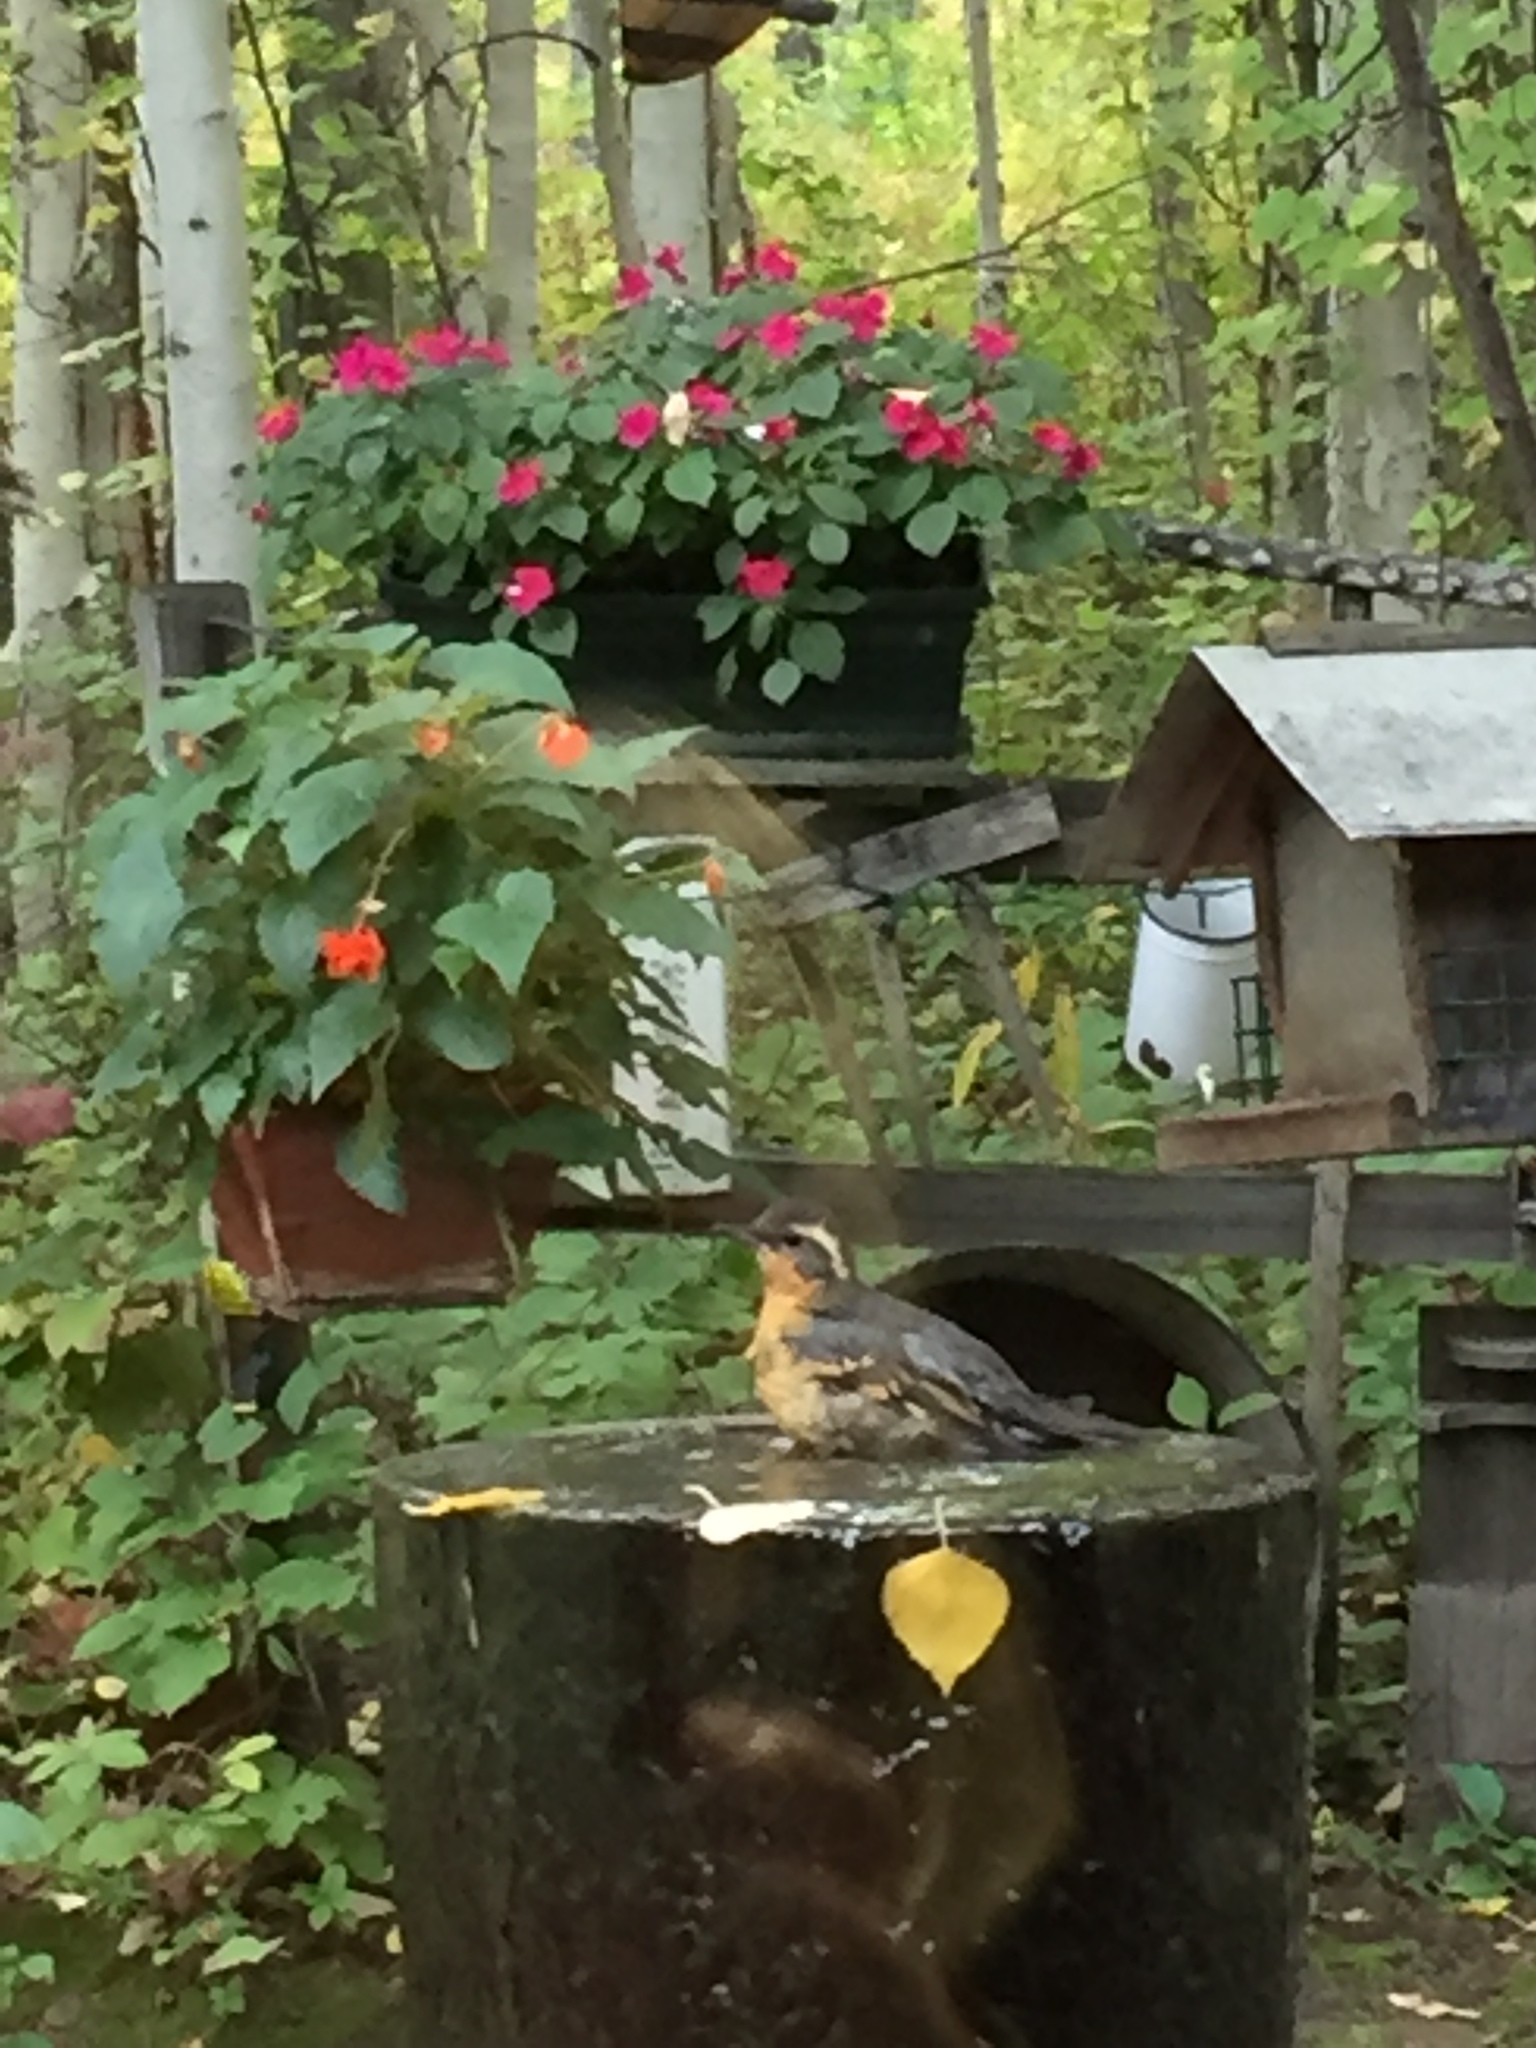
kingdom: Animalia
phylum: Chordata
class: Aves
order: Passeriformes
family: Turdidae
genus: Ixoreus
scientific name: Ixoreus naevius
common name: Varied thrush
